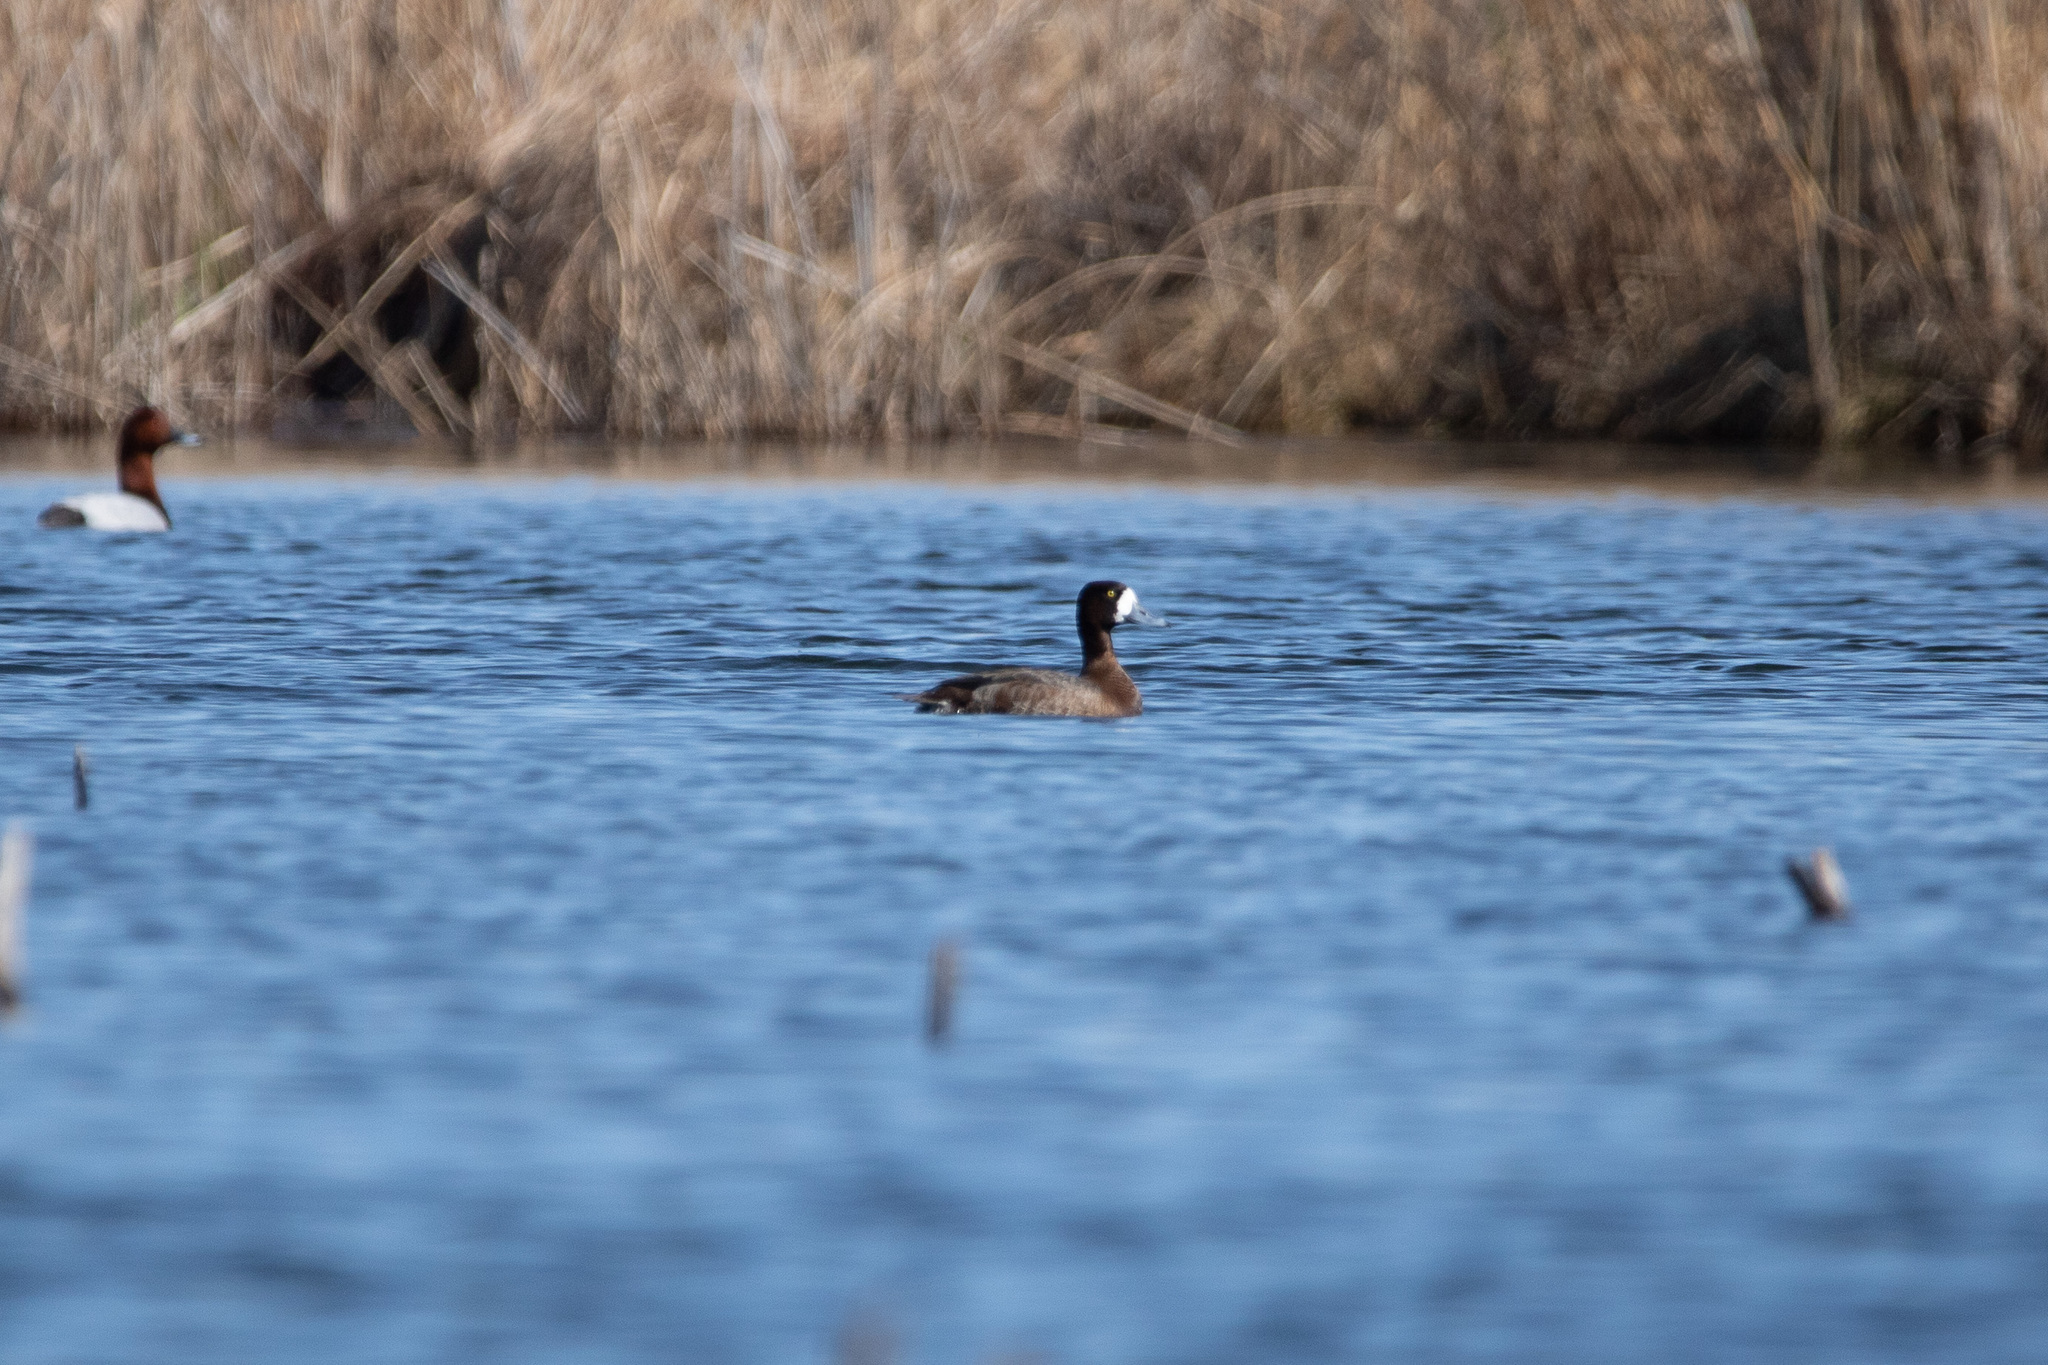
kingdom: Animalia
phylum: Chordata
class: Aves
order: Anseriformes
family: Anatidae
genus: Aythya
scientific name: Aythya marila
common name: Greater scaup
